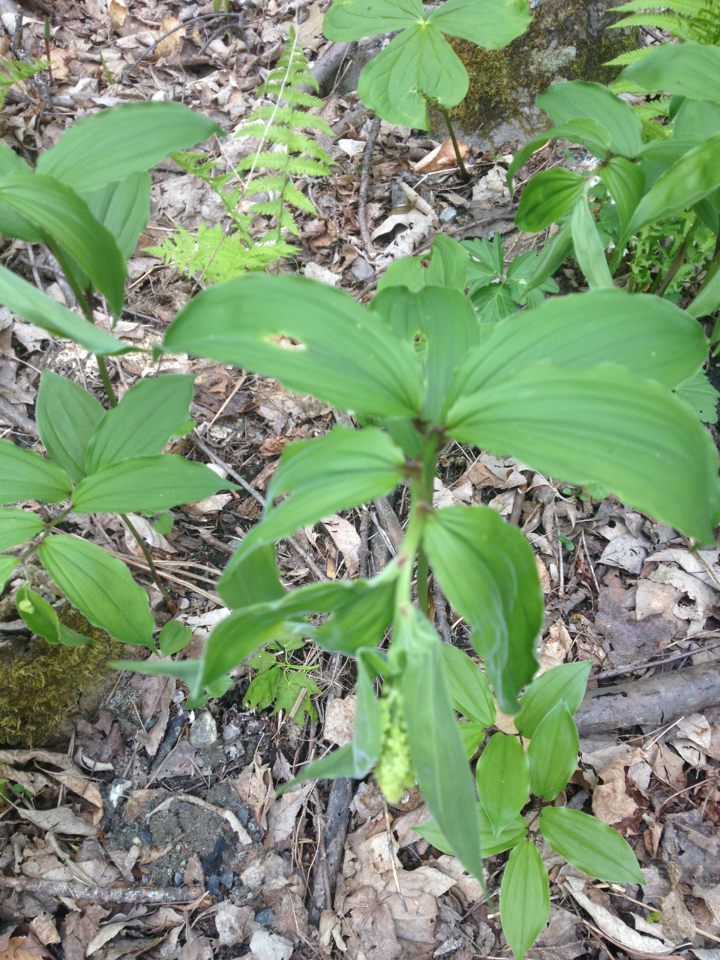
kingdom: Plantae
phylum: Tracheophyta
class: Liliopsida
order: Asparagales
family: Asparagaceae
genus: Maianthemum
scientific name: Maianthemum racemosum
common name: False spikenard
